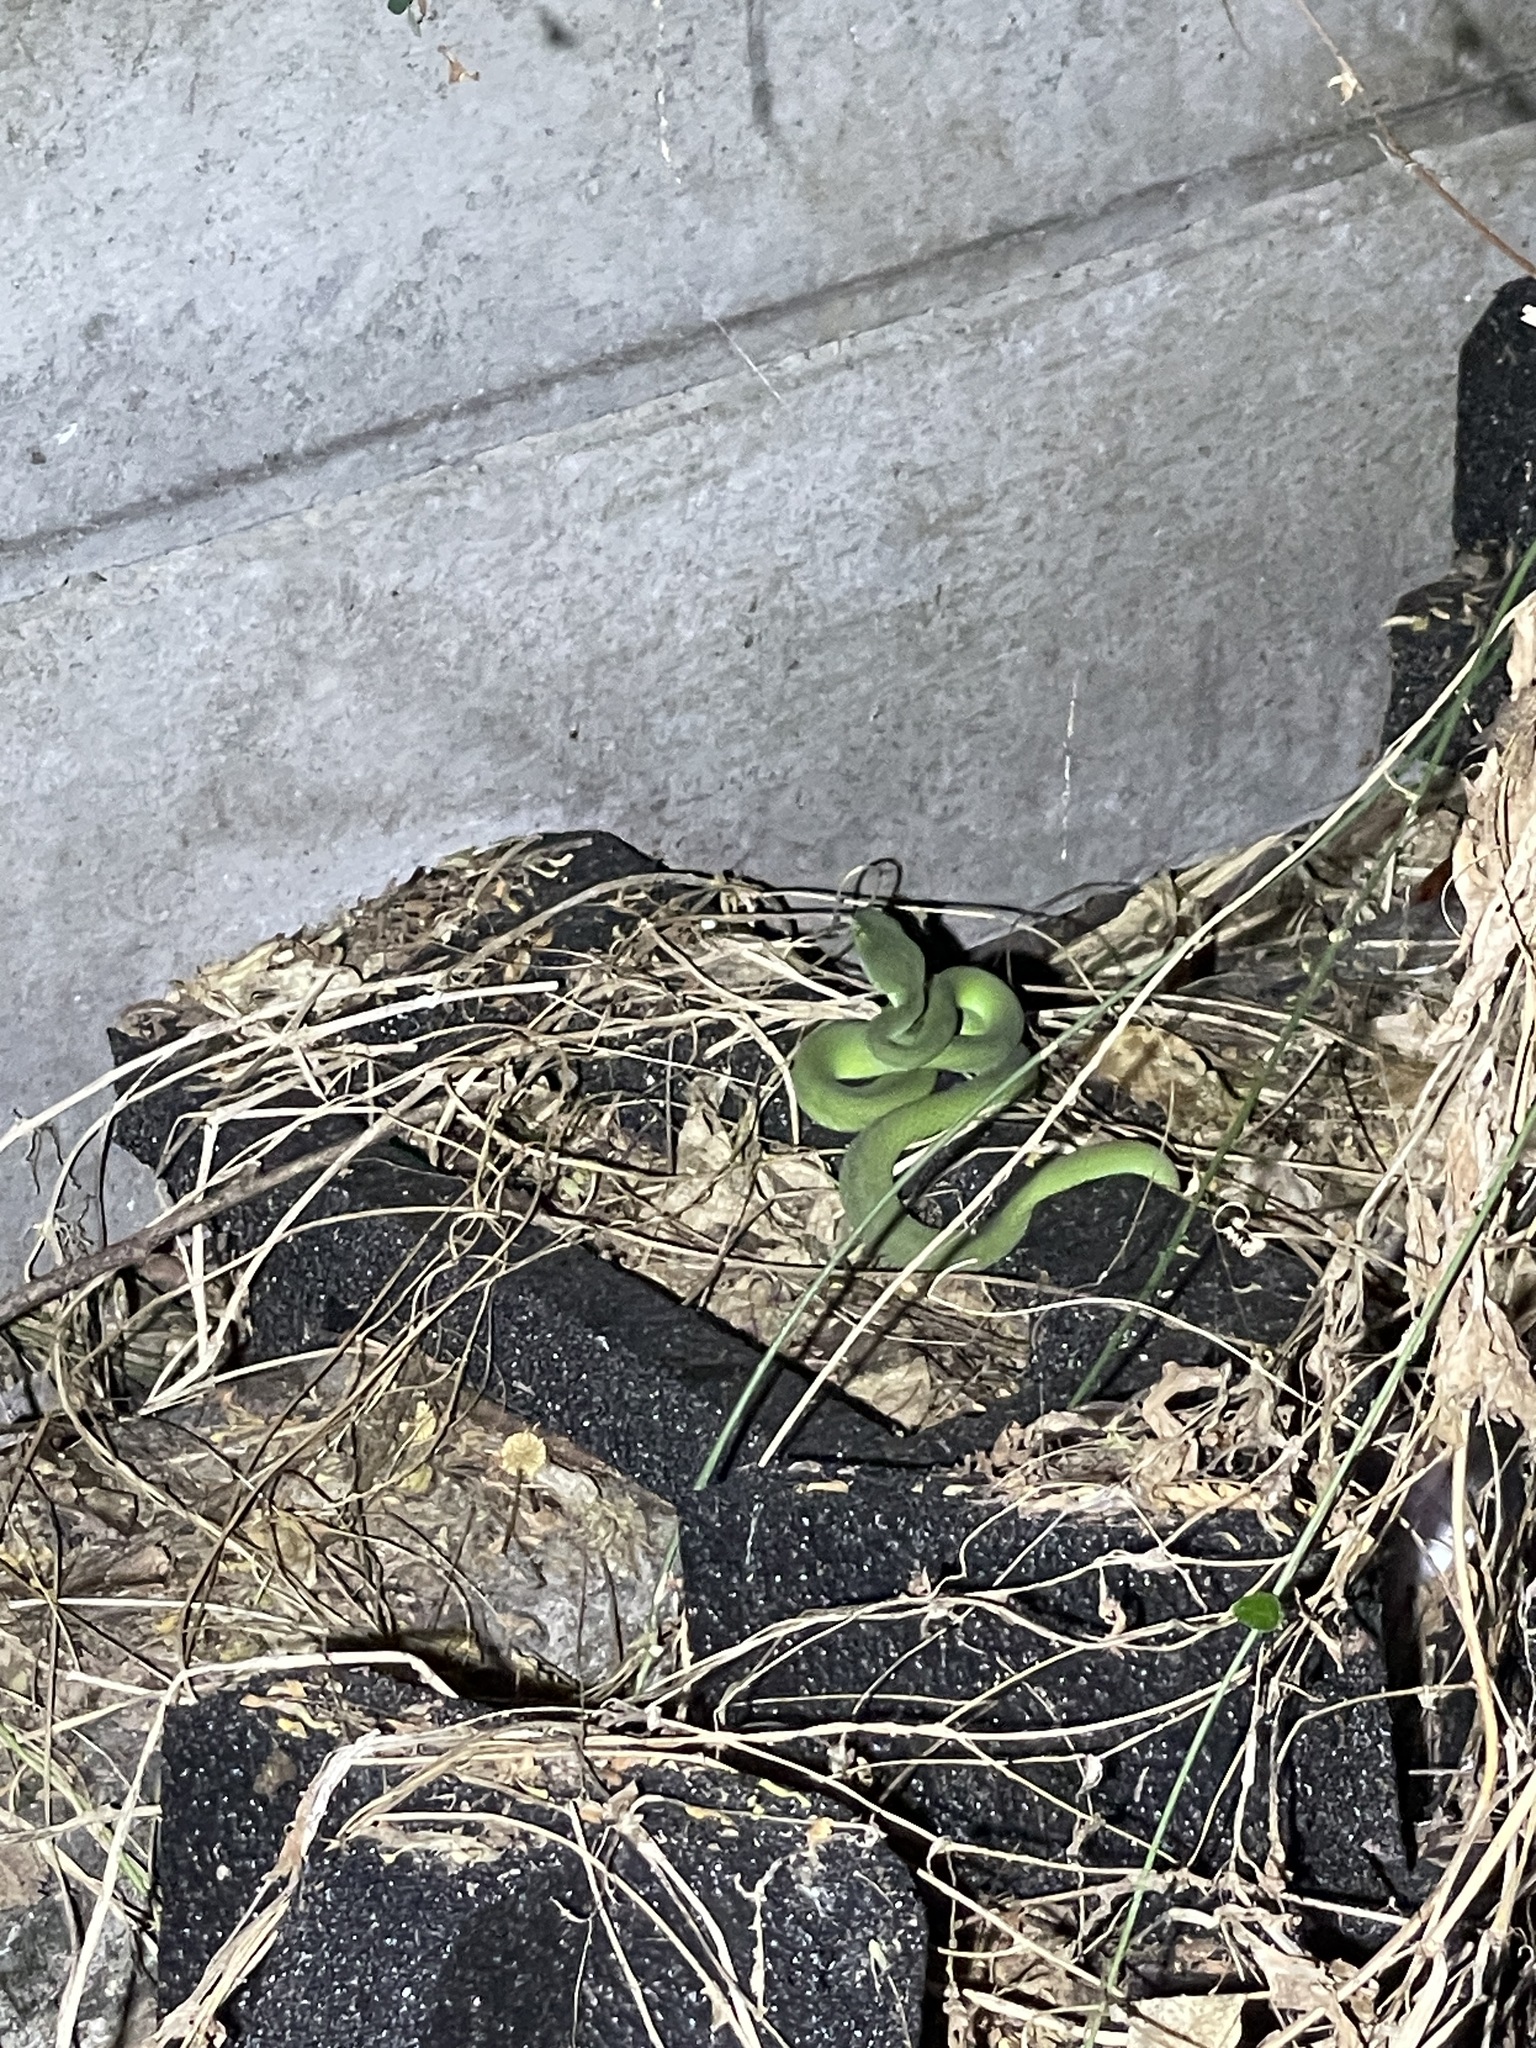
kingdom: Animalia
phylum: Chordata
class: Squamata
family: Viperidae
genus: Trimeresurus
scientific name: Trimeresurus macrops
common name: Kramer's pit viper
